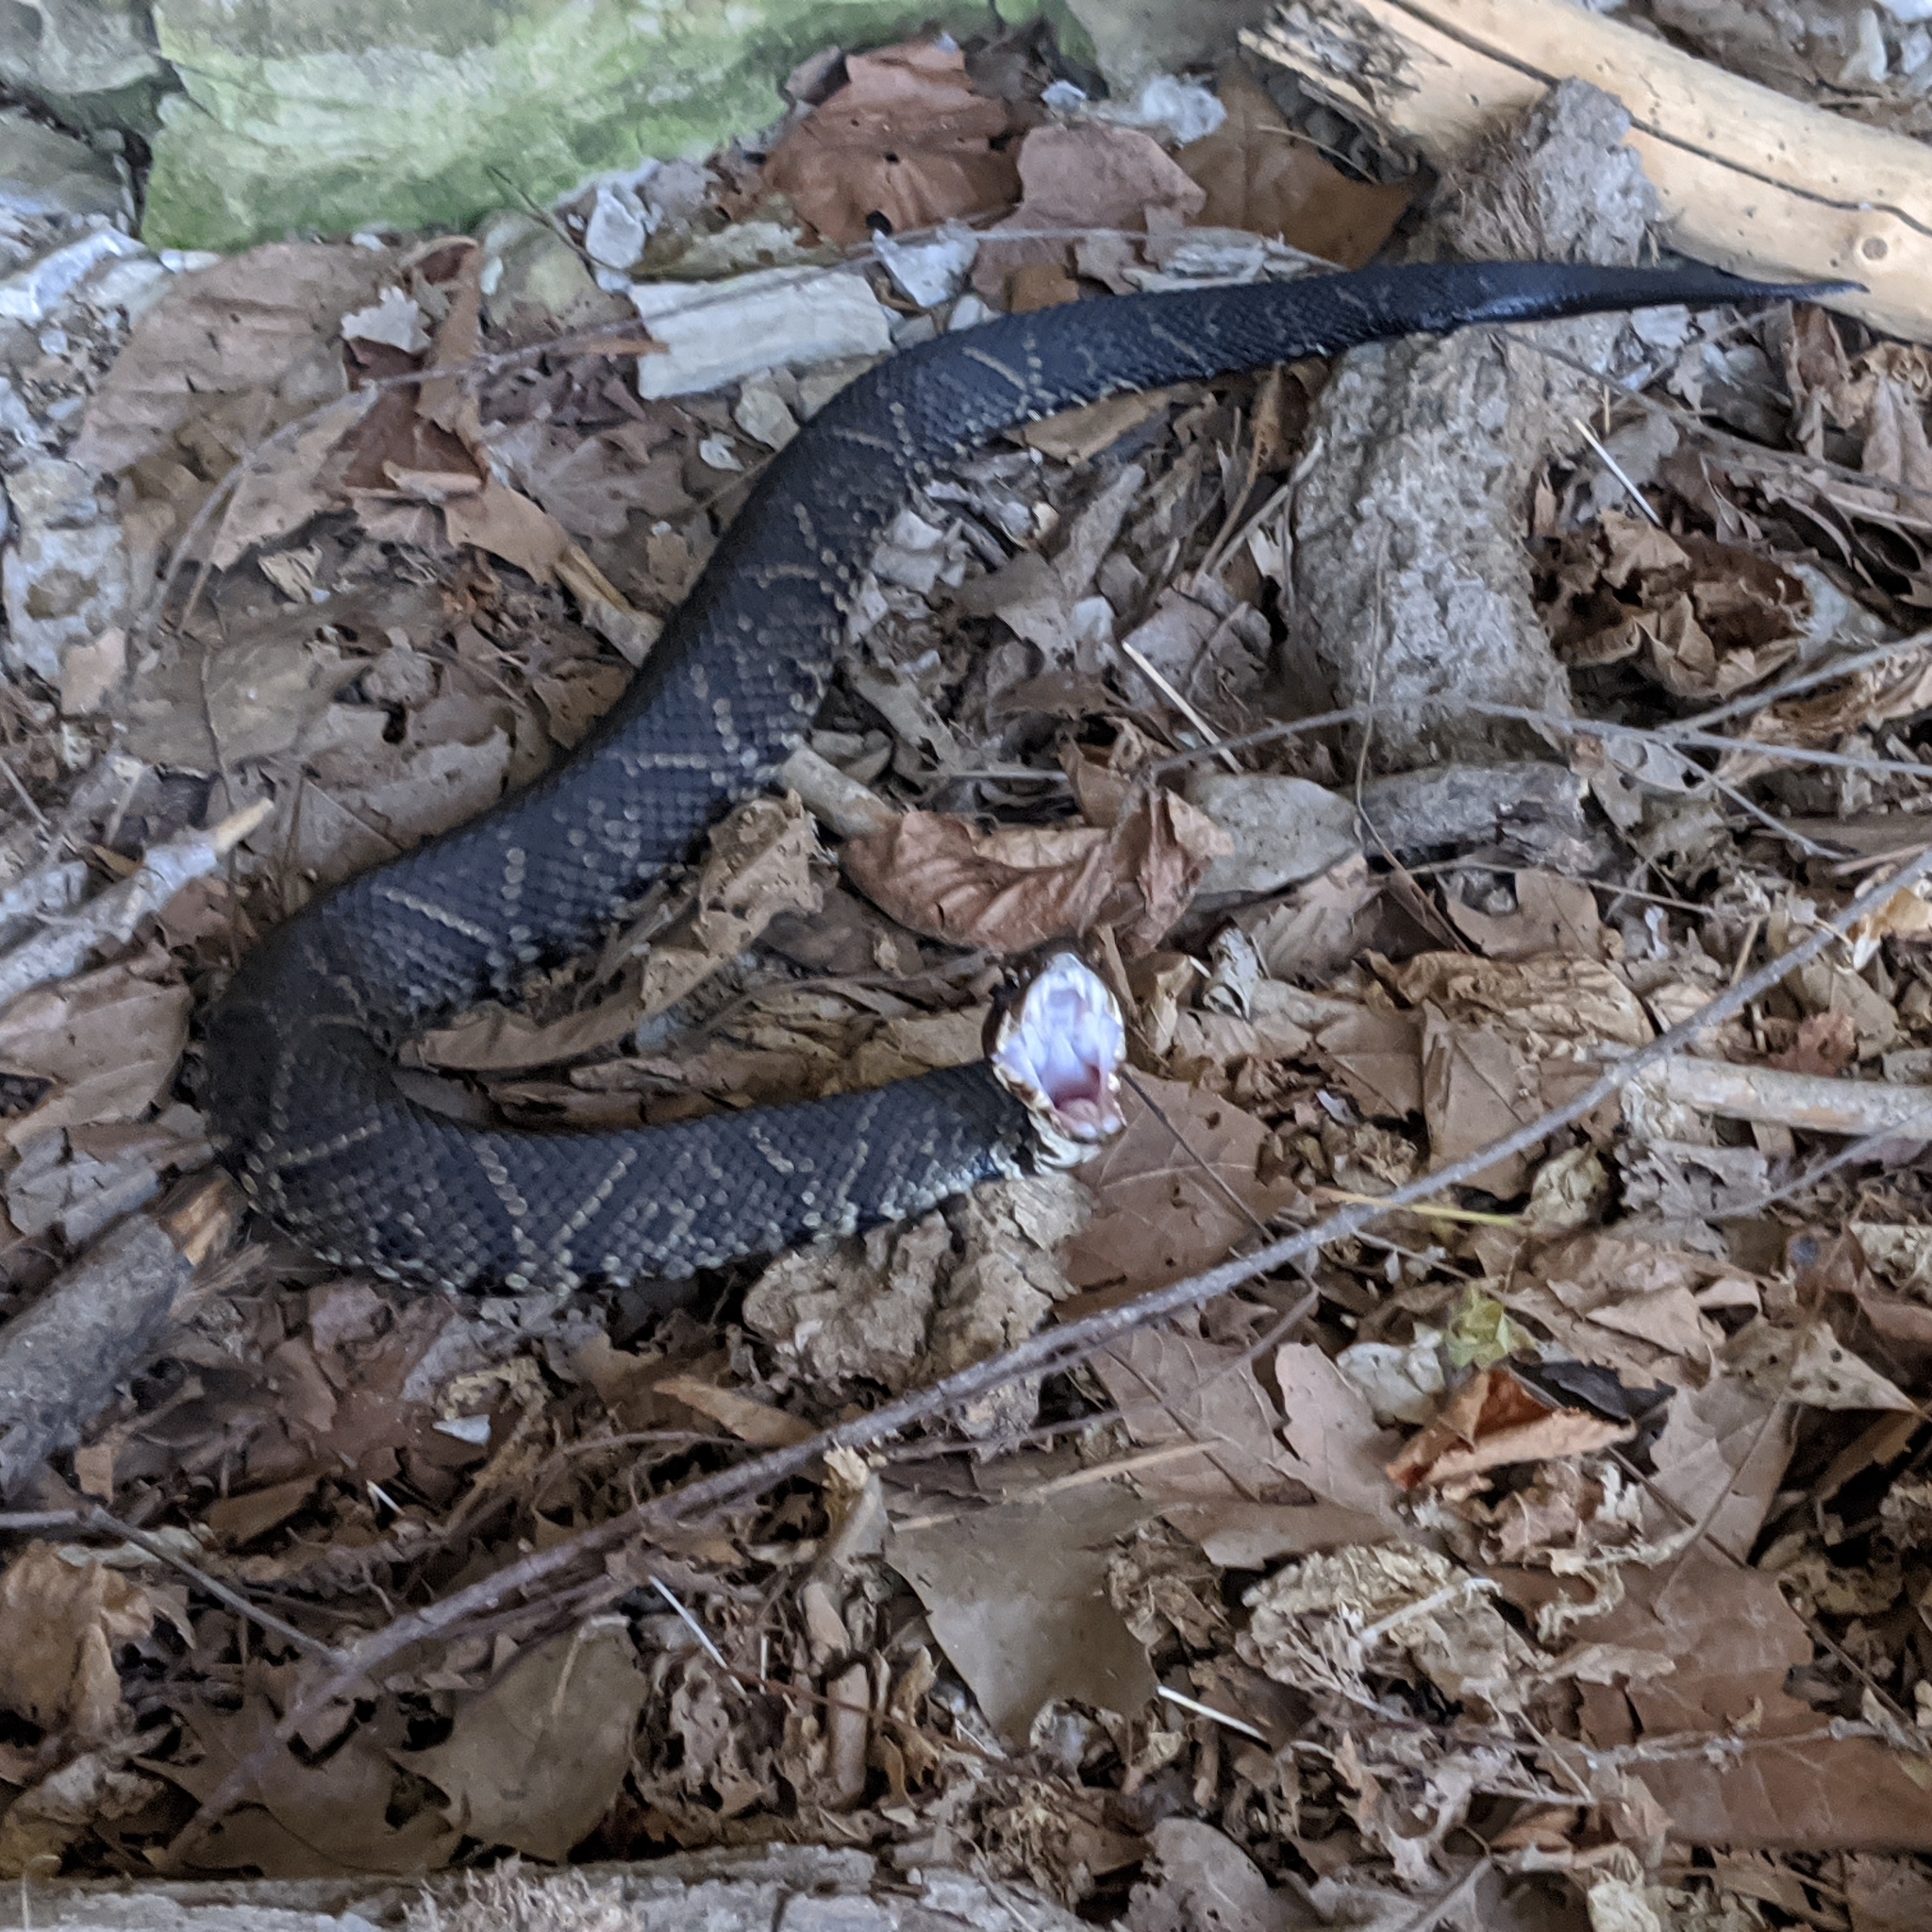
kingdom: Animalia
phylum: Chordata
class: Squamata
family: Viperidae
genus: Agkistrodon
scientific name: Agkistrodon piscivorus
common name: Cottonmouth
